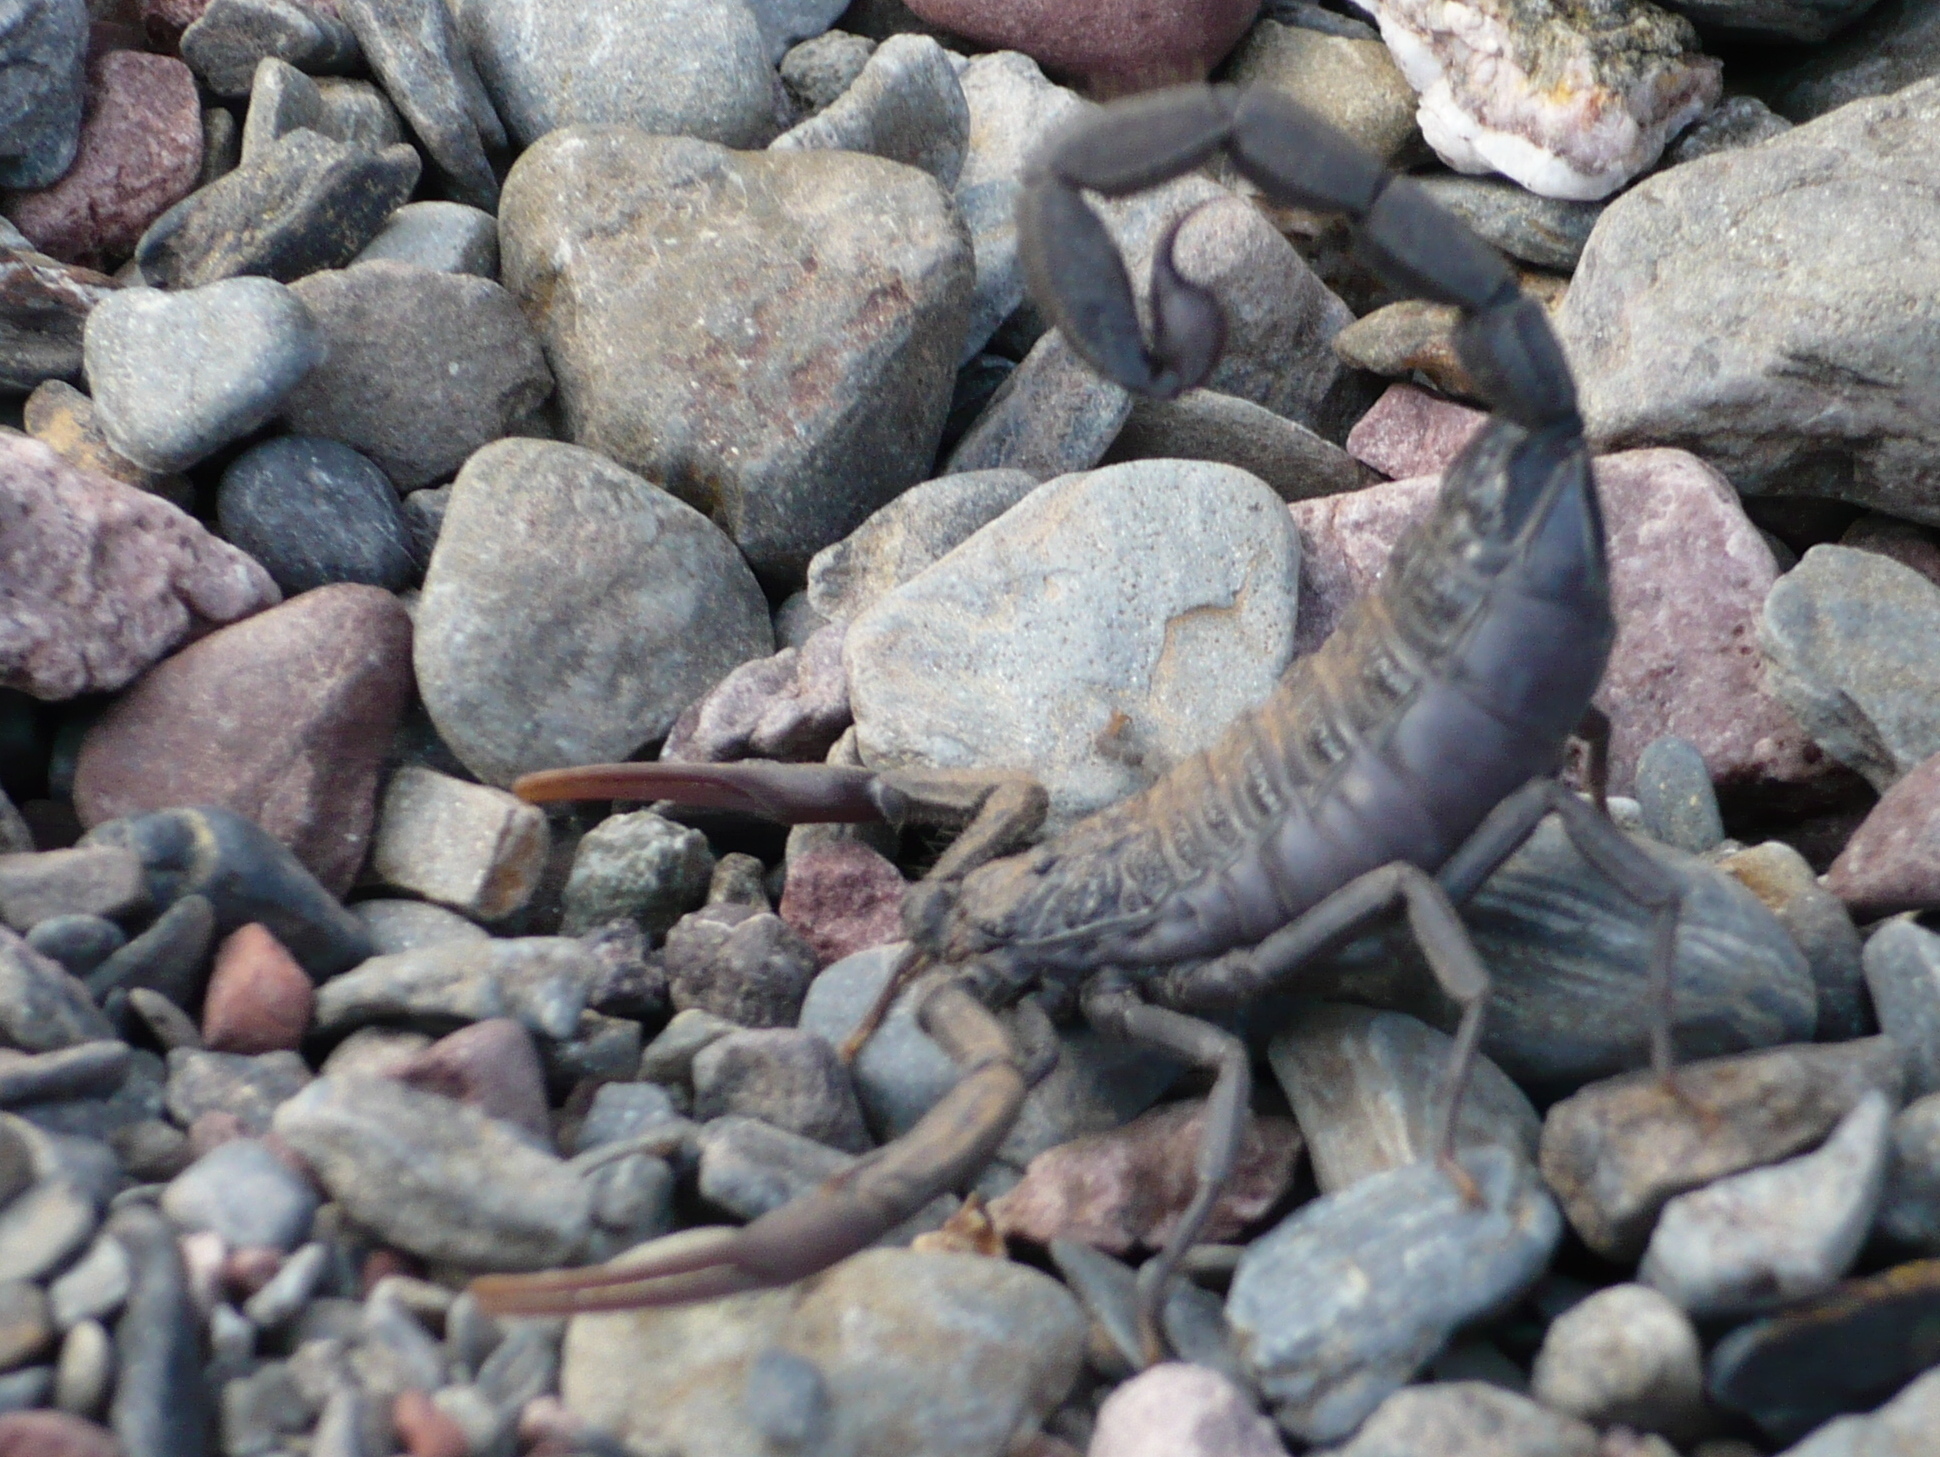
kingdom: Animalia
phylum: Arthropoda
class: Arachnida
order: Scorpiones
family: Buthidae
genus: Hottentotta
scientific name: Hottentotta gentili
